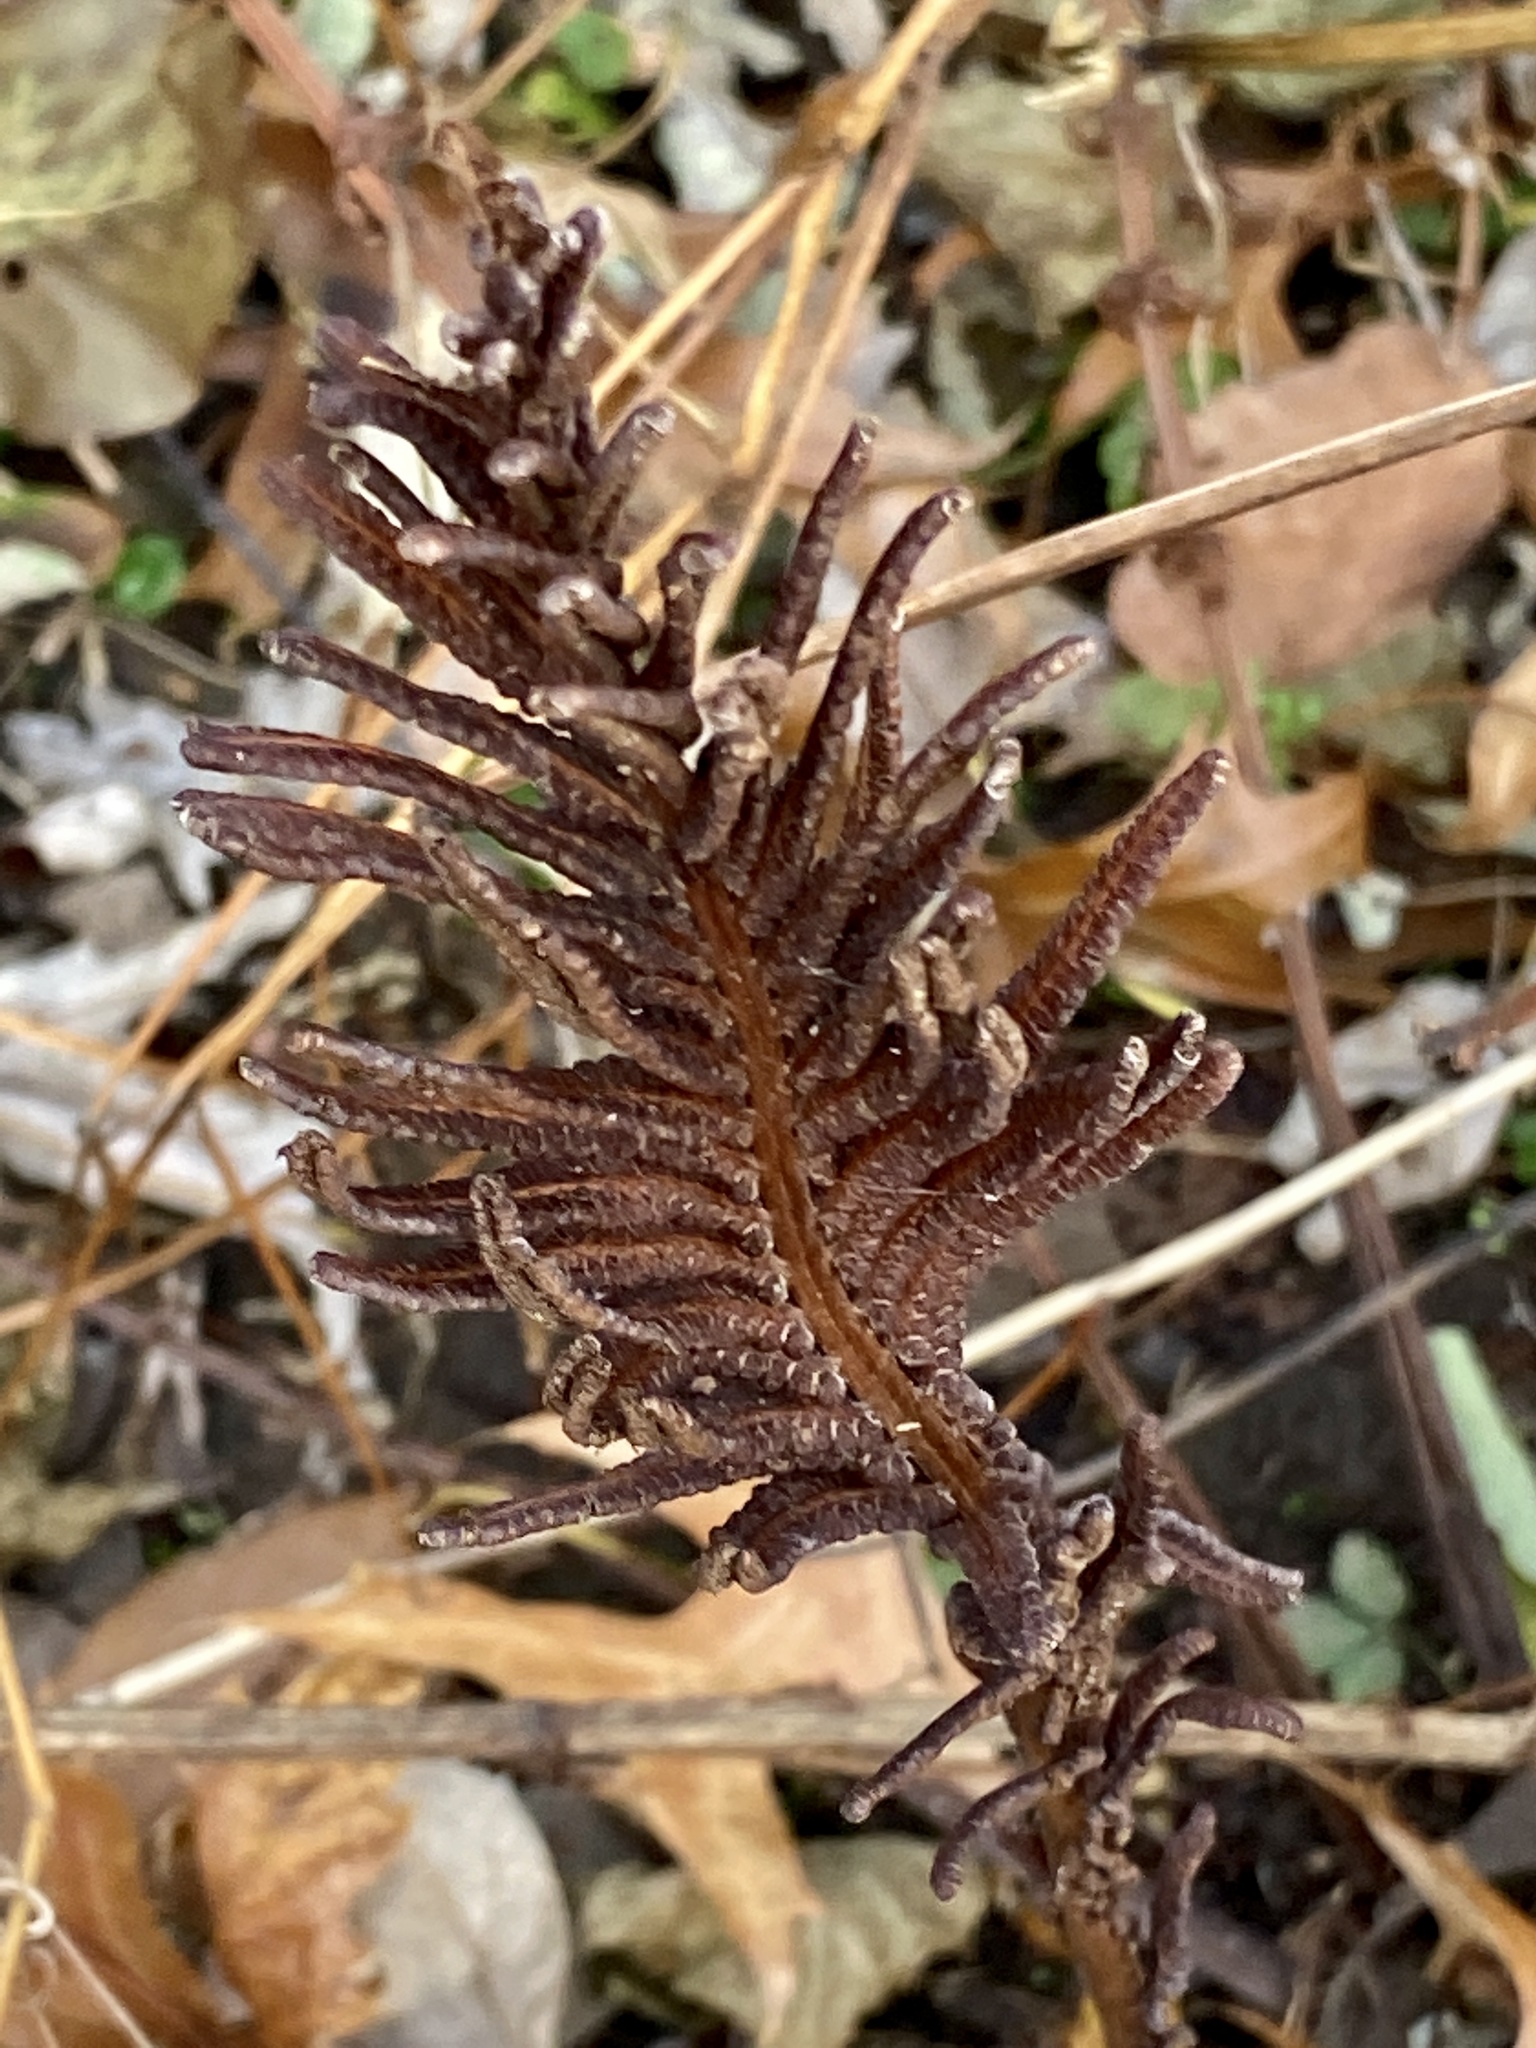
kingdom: Plantae
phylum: Tracheophyta
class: Polypodiopsida
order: Polypodiales
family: Onocleaceae
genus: Matteuccia
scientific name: Matteuccia struthiopteris
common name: Ostrich fern
